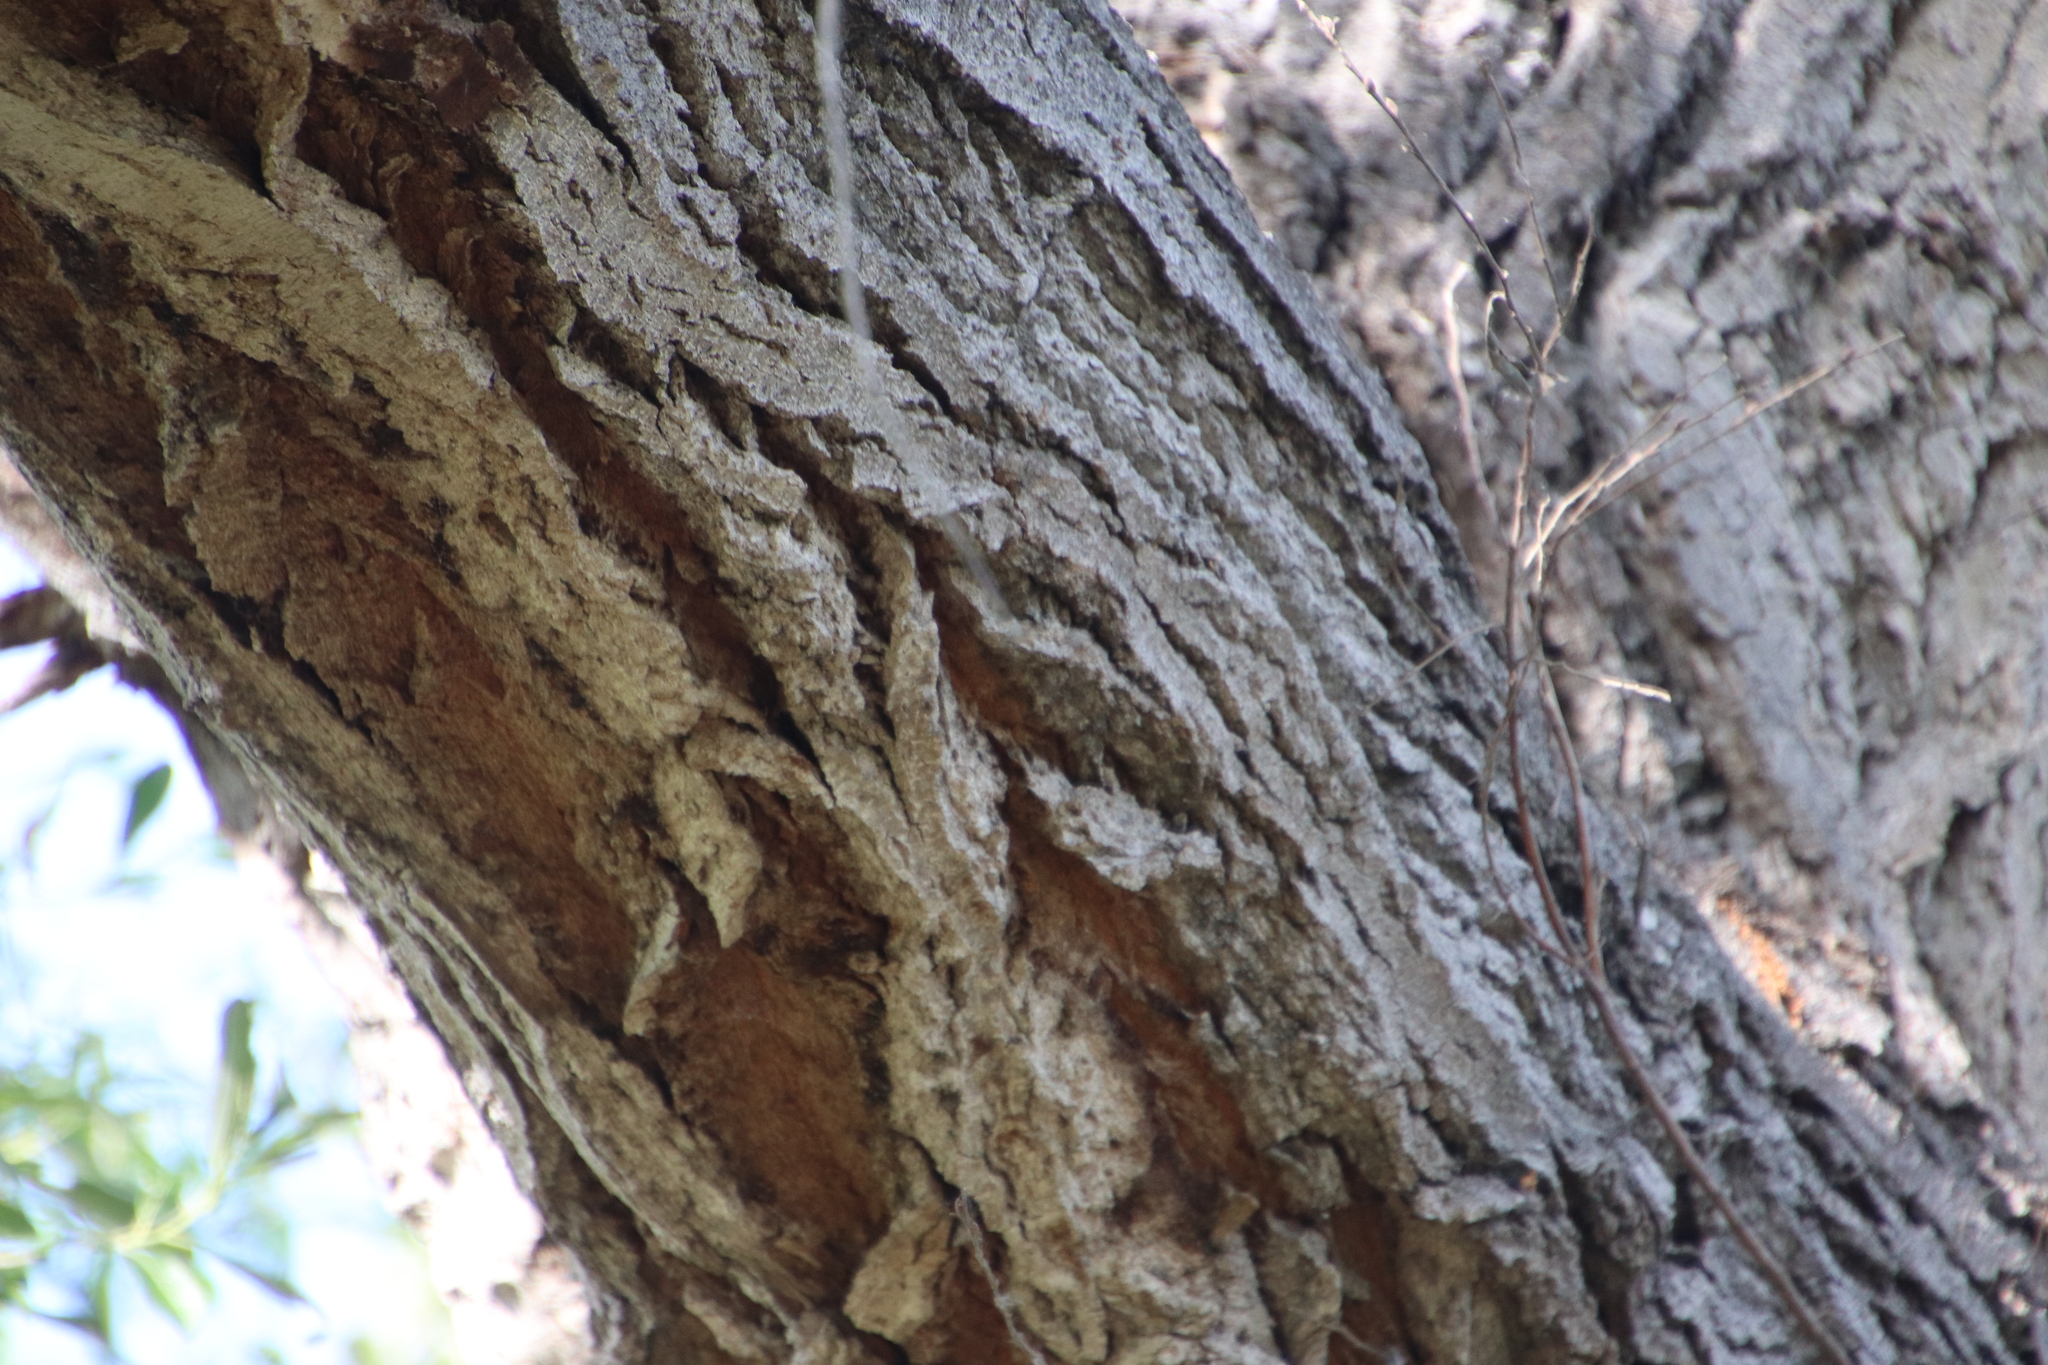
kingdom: Plantae
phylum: Tracheophyta
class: Magnoliopsida
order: Malpighiales
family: Salicaceae
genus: Populus
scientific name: Populus fremontii
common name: Fremont's cottonwood
